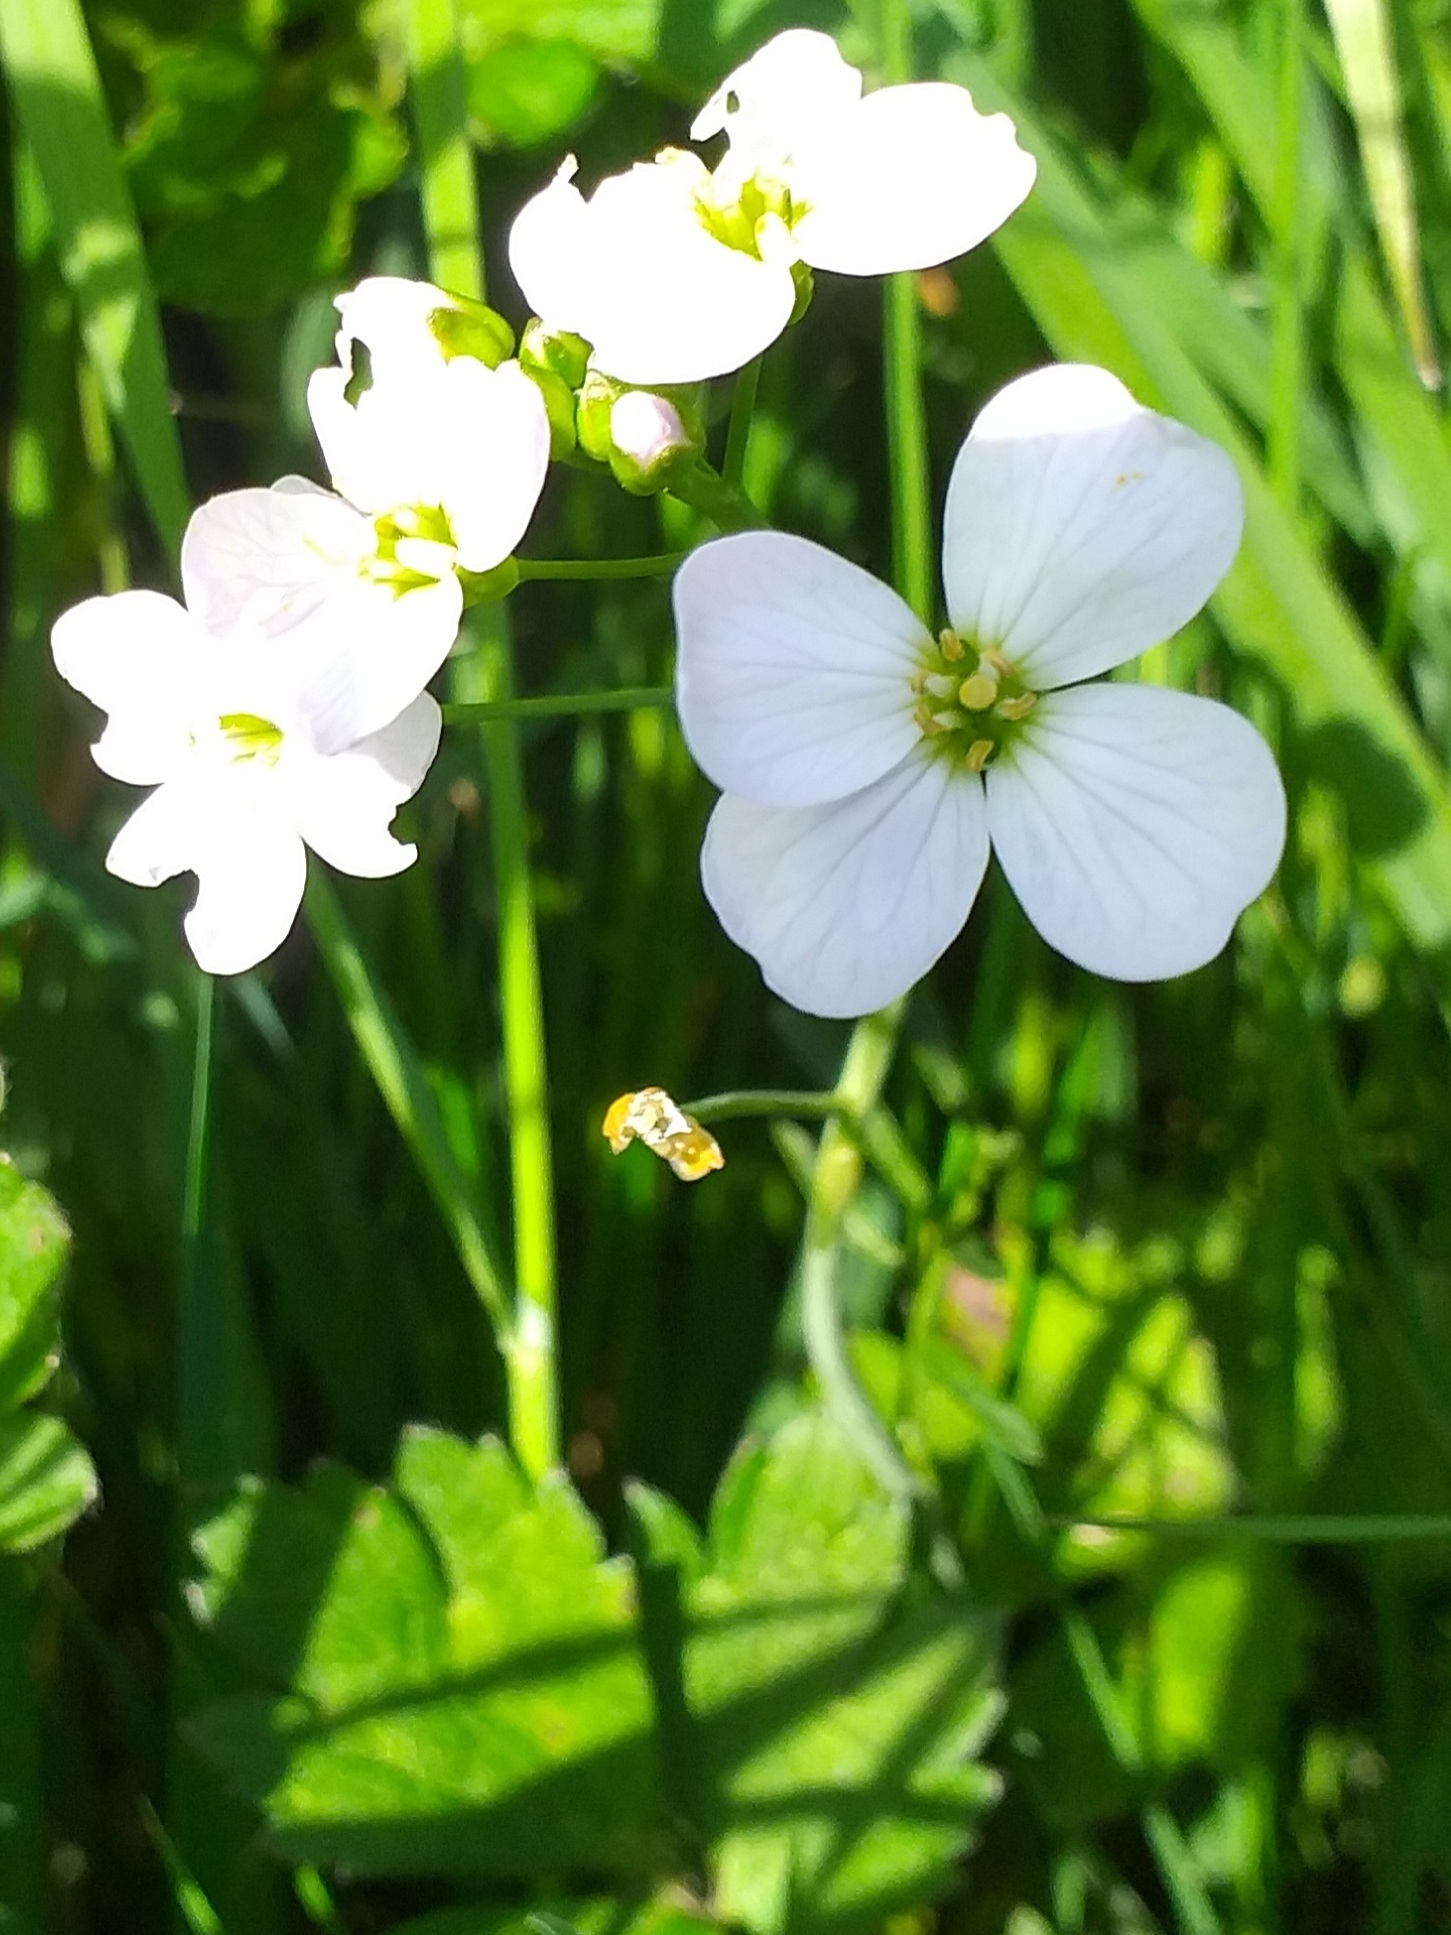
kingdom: Plantae
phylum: Tracheophyta
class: Magnoliopsida
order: Brassicales
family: Brassicaceae
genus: Cardamine
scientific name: Cardamine pratensis
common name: Cuckoo flower
